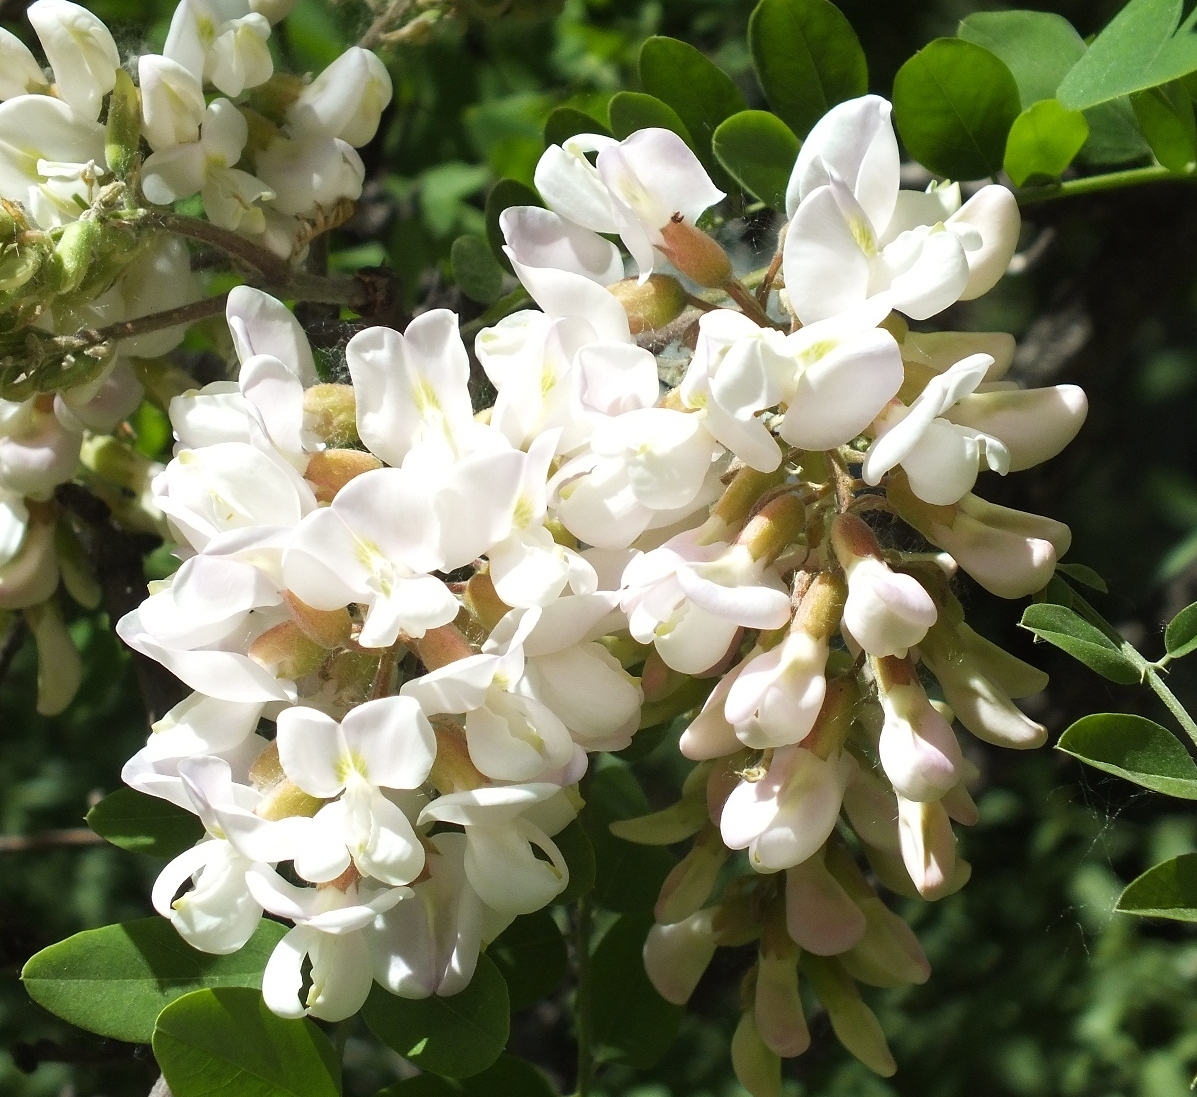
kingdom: Plantae
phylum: Tracheophyta
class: Magnoliopsida
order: Fabales
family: Fabaceae
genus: Robinia
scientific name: Robinia pseudoacacia
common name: Black locust
